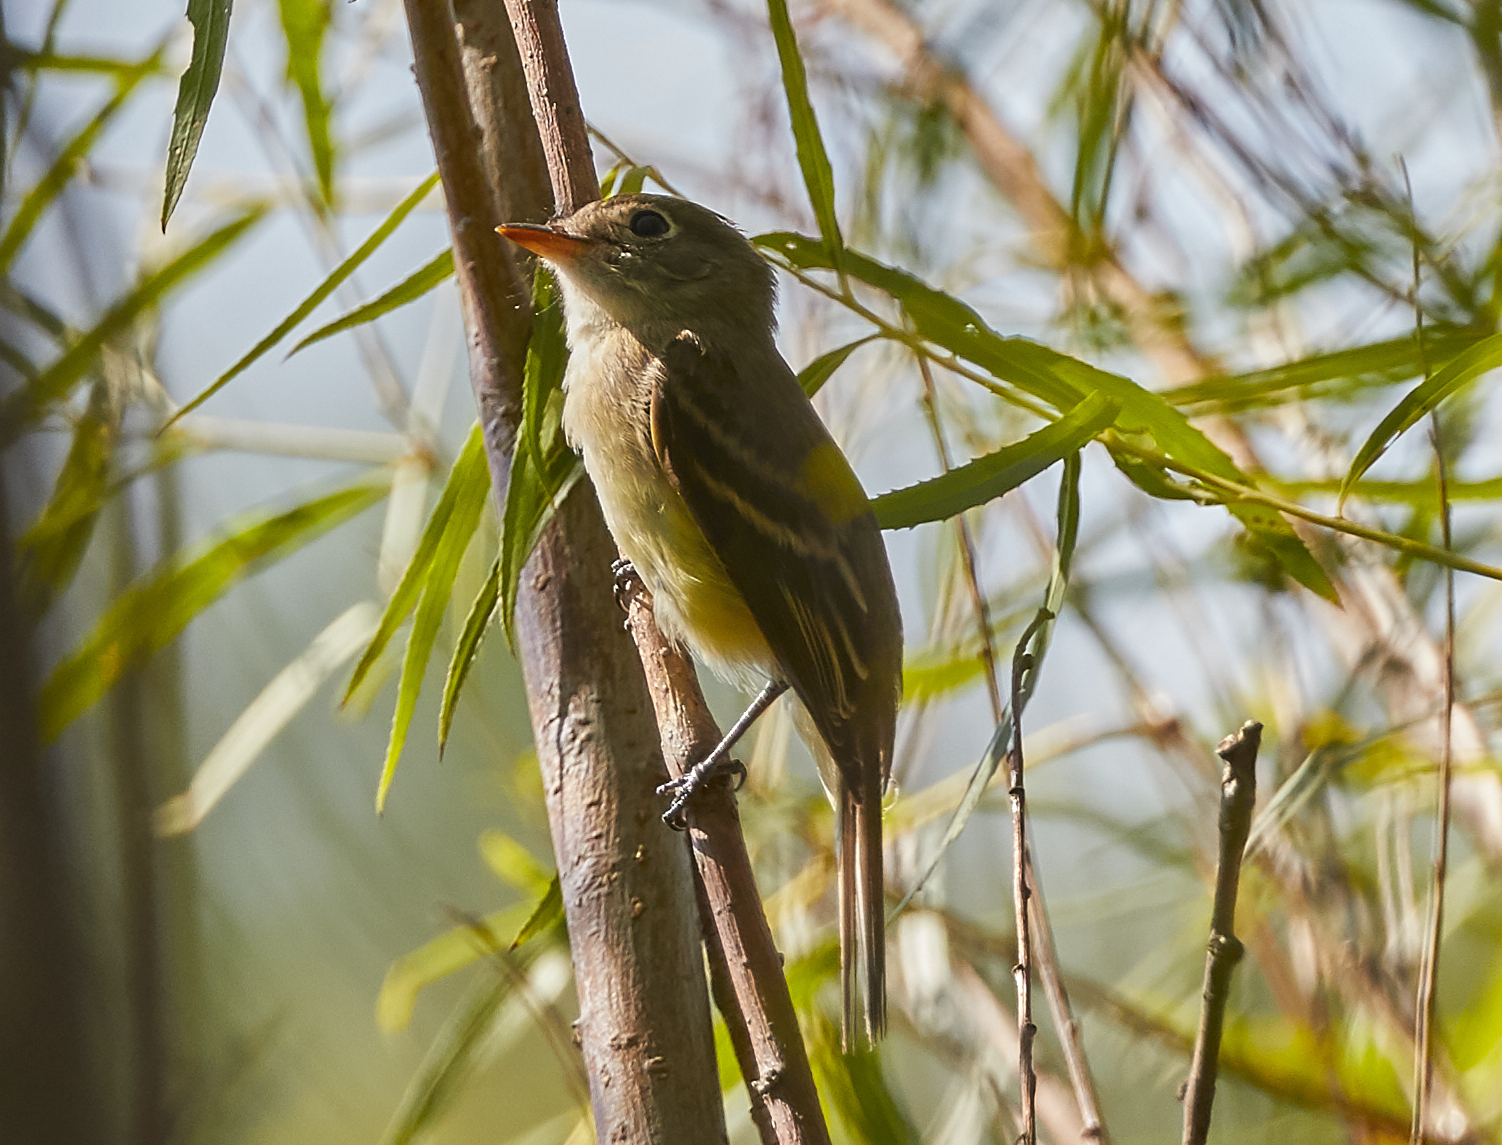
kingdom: Animalia
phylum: Chordata
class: Aves
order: Passeriformes
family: Tyrannidae
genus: Empidonax
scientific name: Empidonax flaviventris
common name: Yellow-bellied flycatcher
